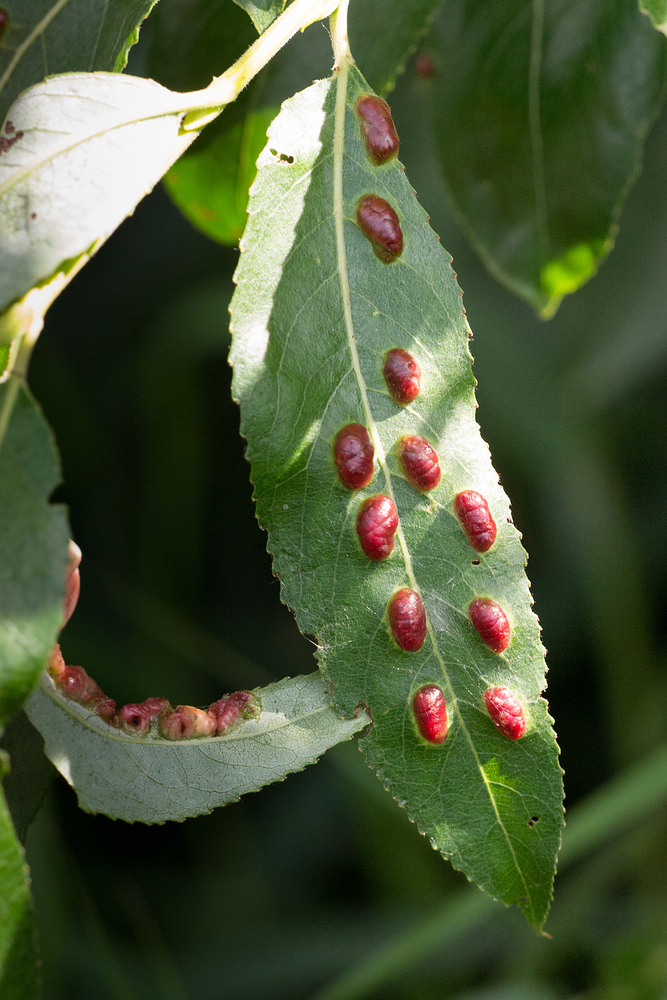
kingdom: Animalia
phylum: Arthropoda
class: Insecta
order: Hymenoptera
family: Tenthredinidae
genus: Pontania
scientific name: Pontania proxima
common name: Common sawfly
